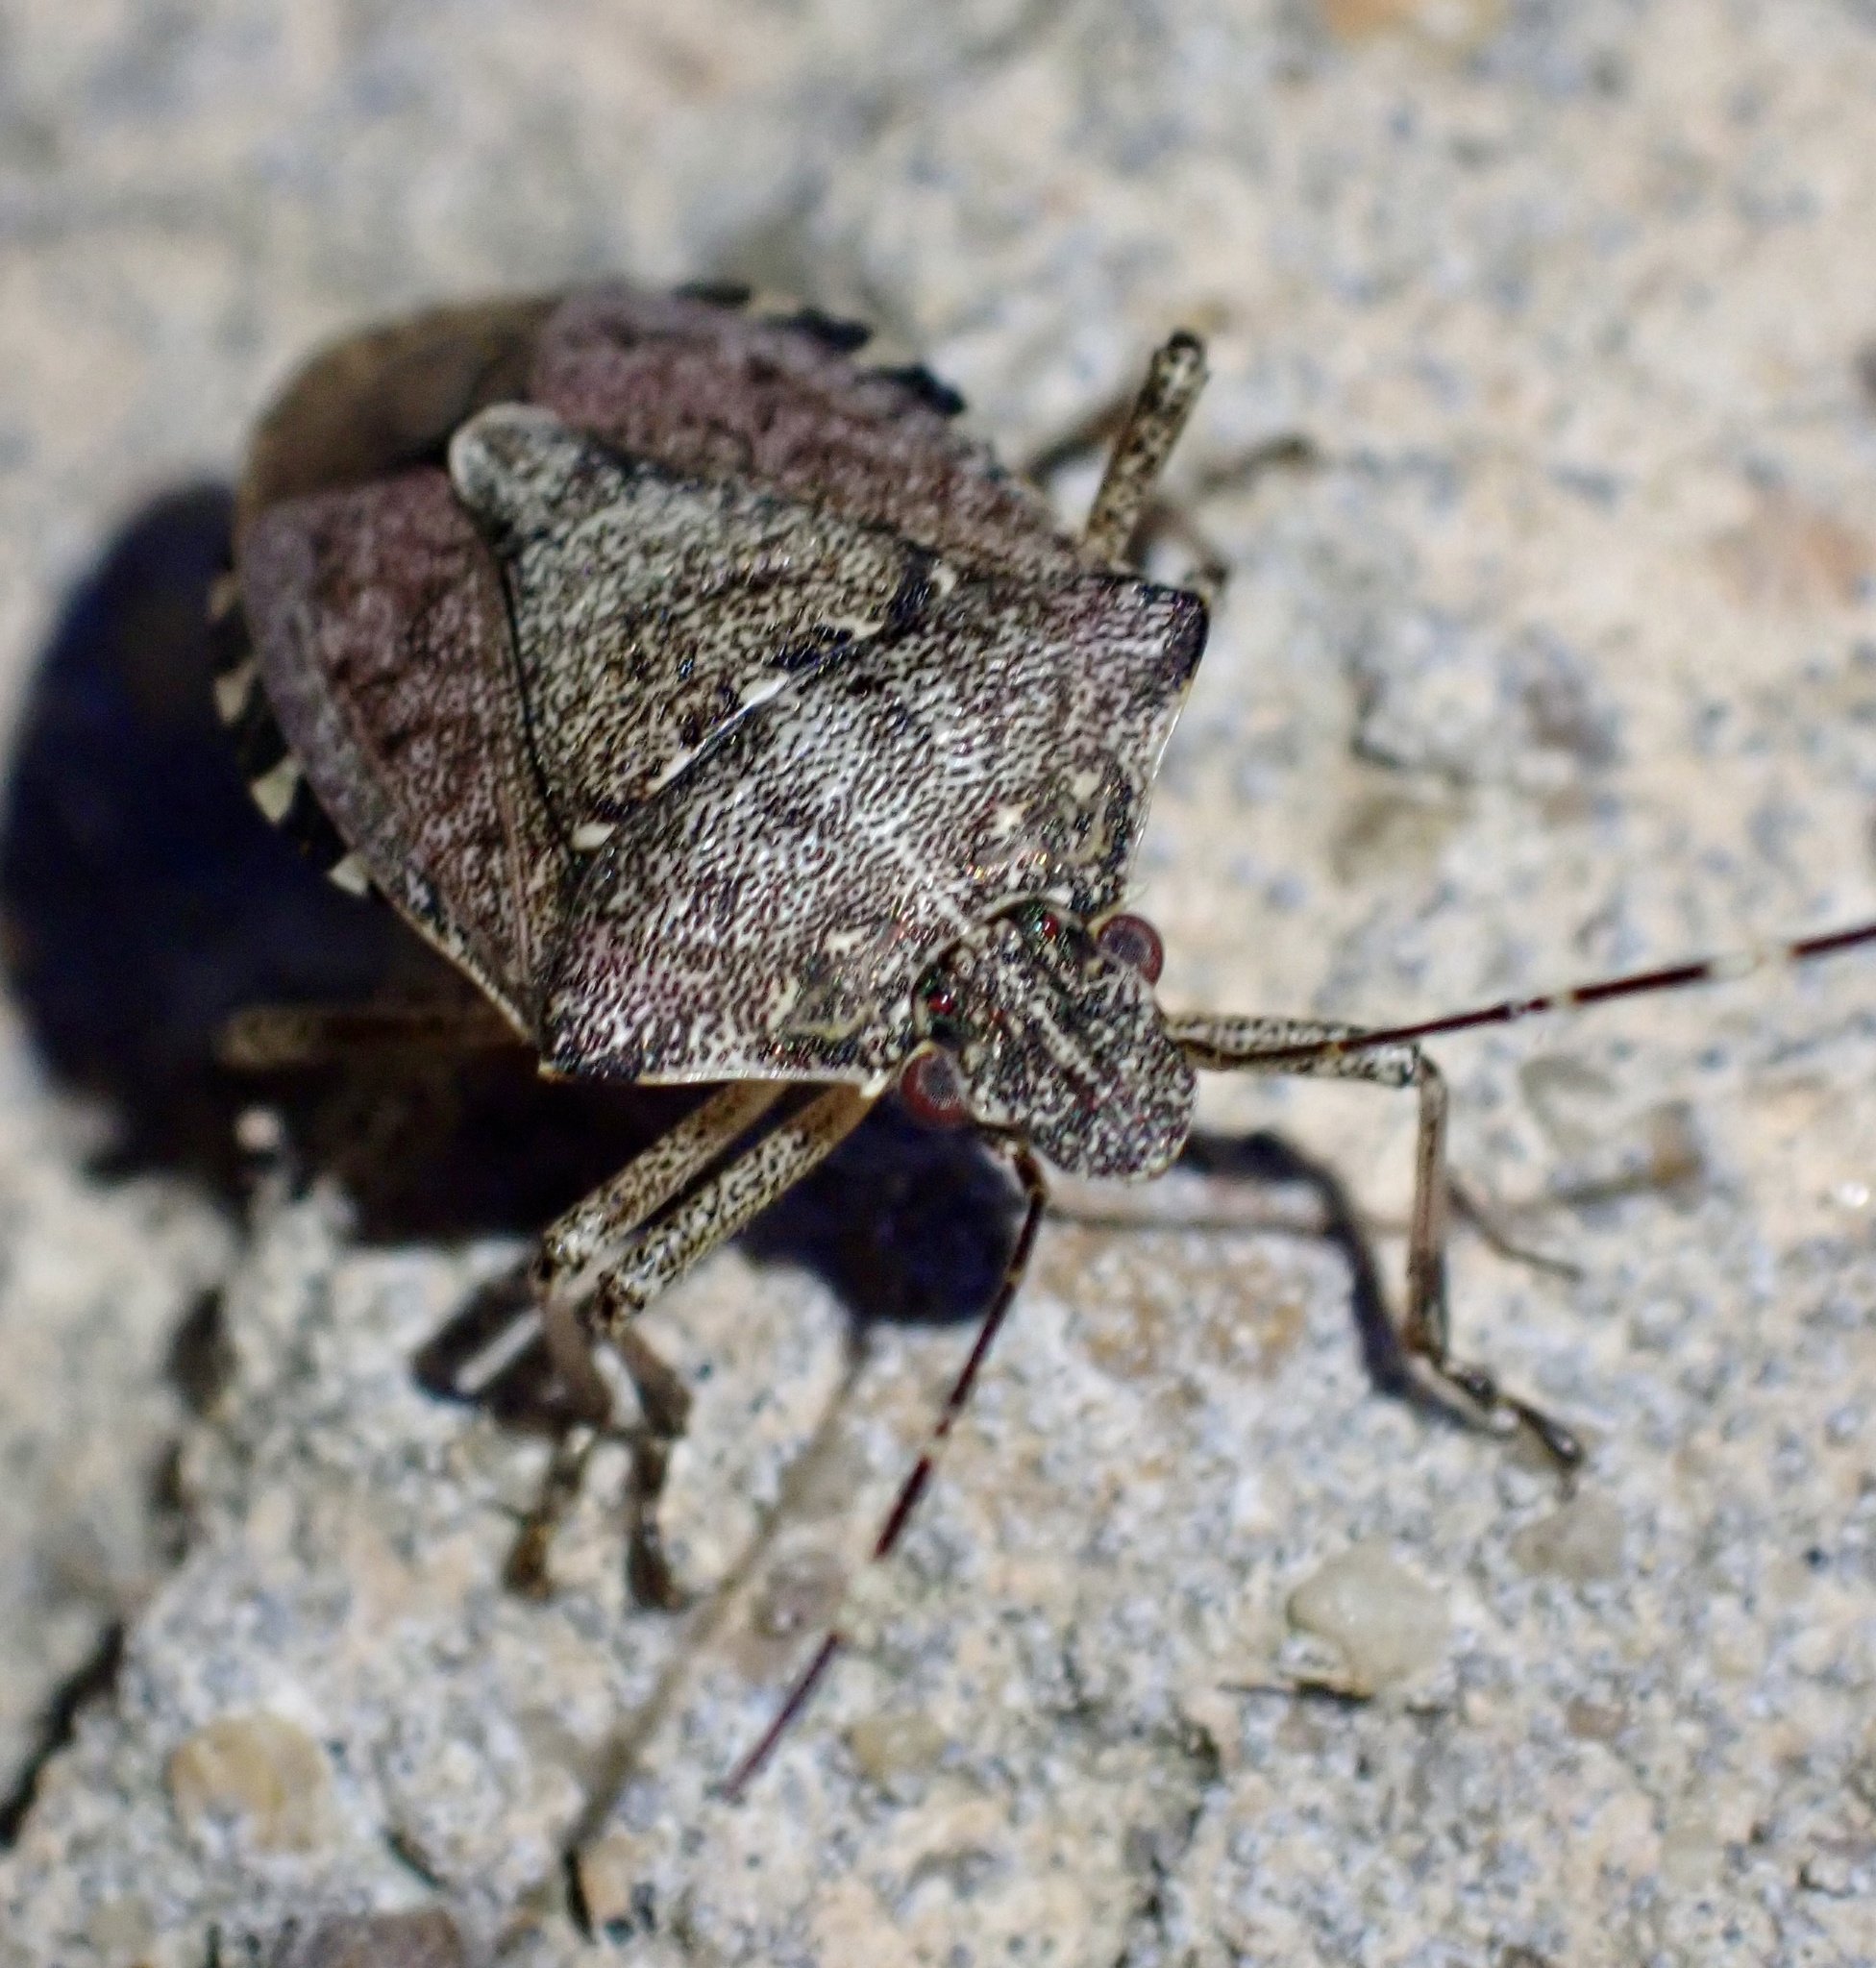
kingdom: Animalia
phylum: Arthropoda
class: Insecta
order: Hemiptera
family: Pentatomidae
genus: Halyomorpha
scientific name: Halyomorpha halys
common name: Brown marmorated stink bug
